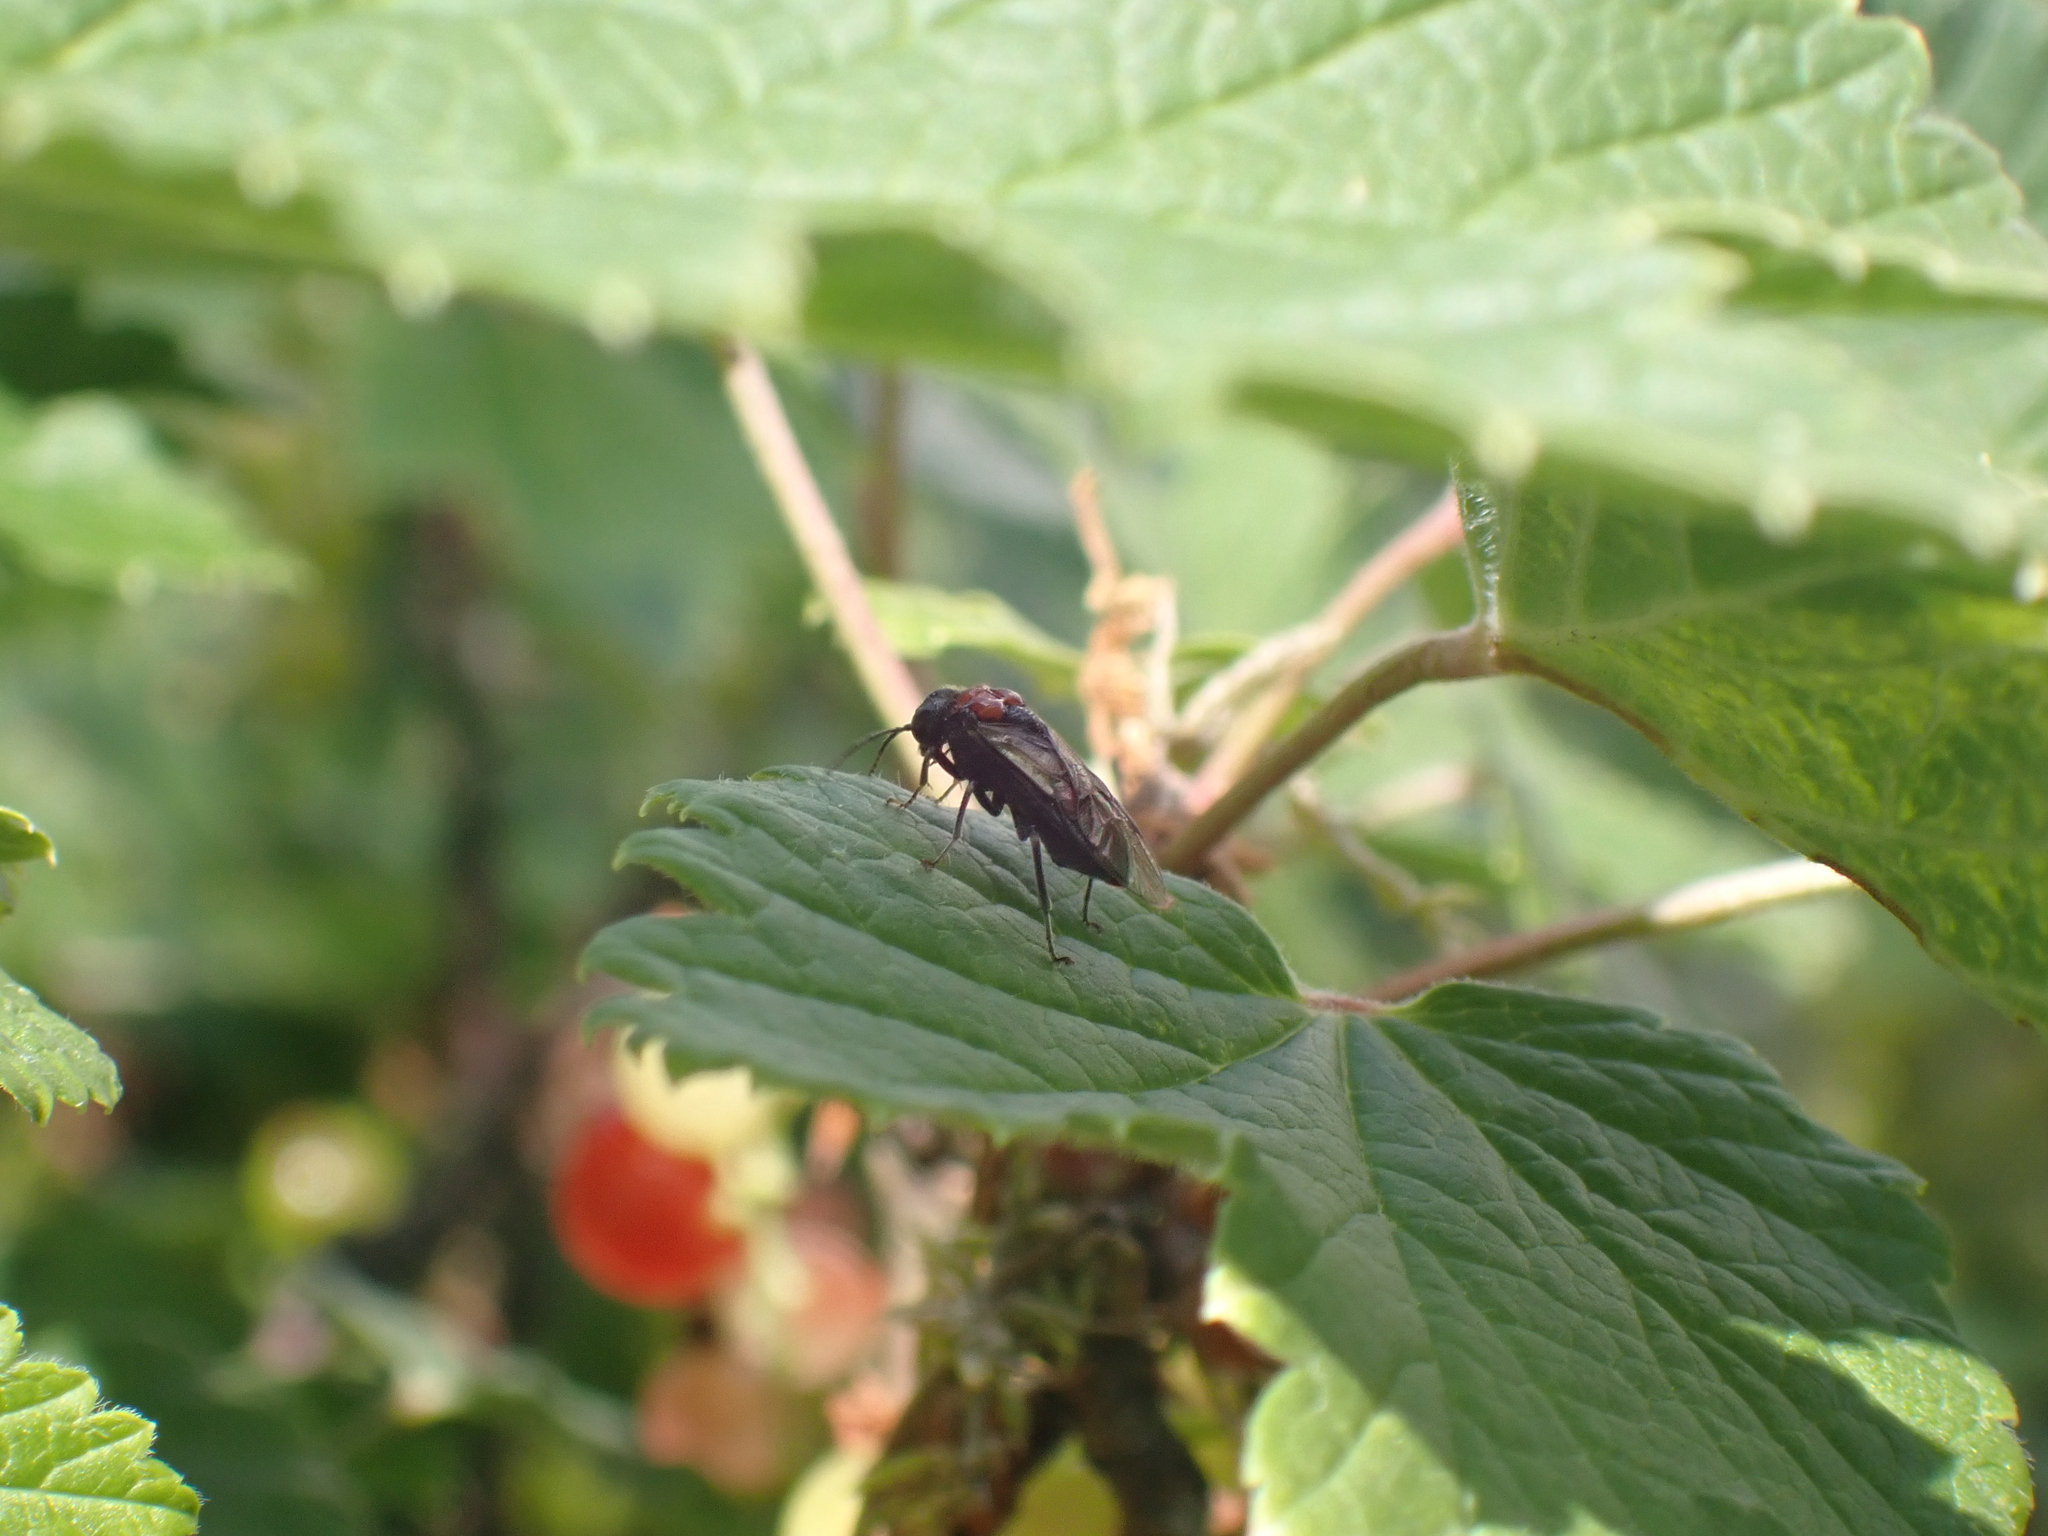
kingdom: Animalia
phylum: Arthropoda
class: Insecta
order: Hymenoptera
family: Tenthredinidae
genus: Eriocampa
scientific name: Eriocampa ovata
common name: Alder wooly sawfly
